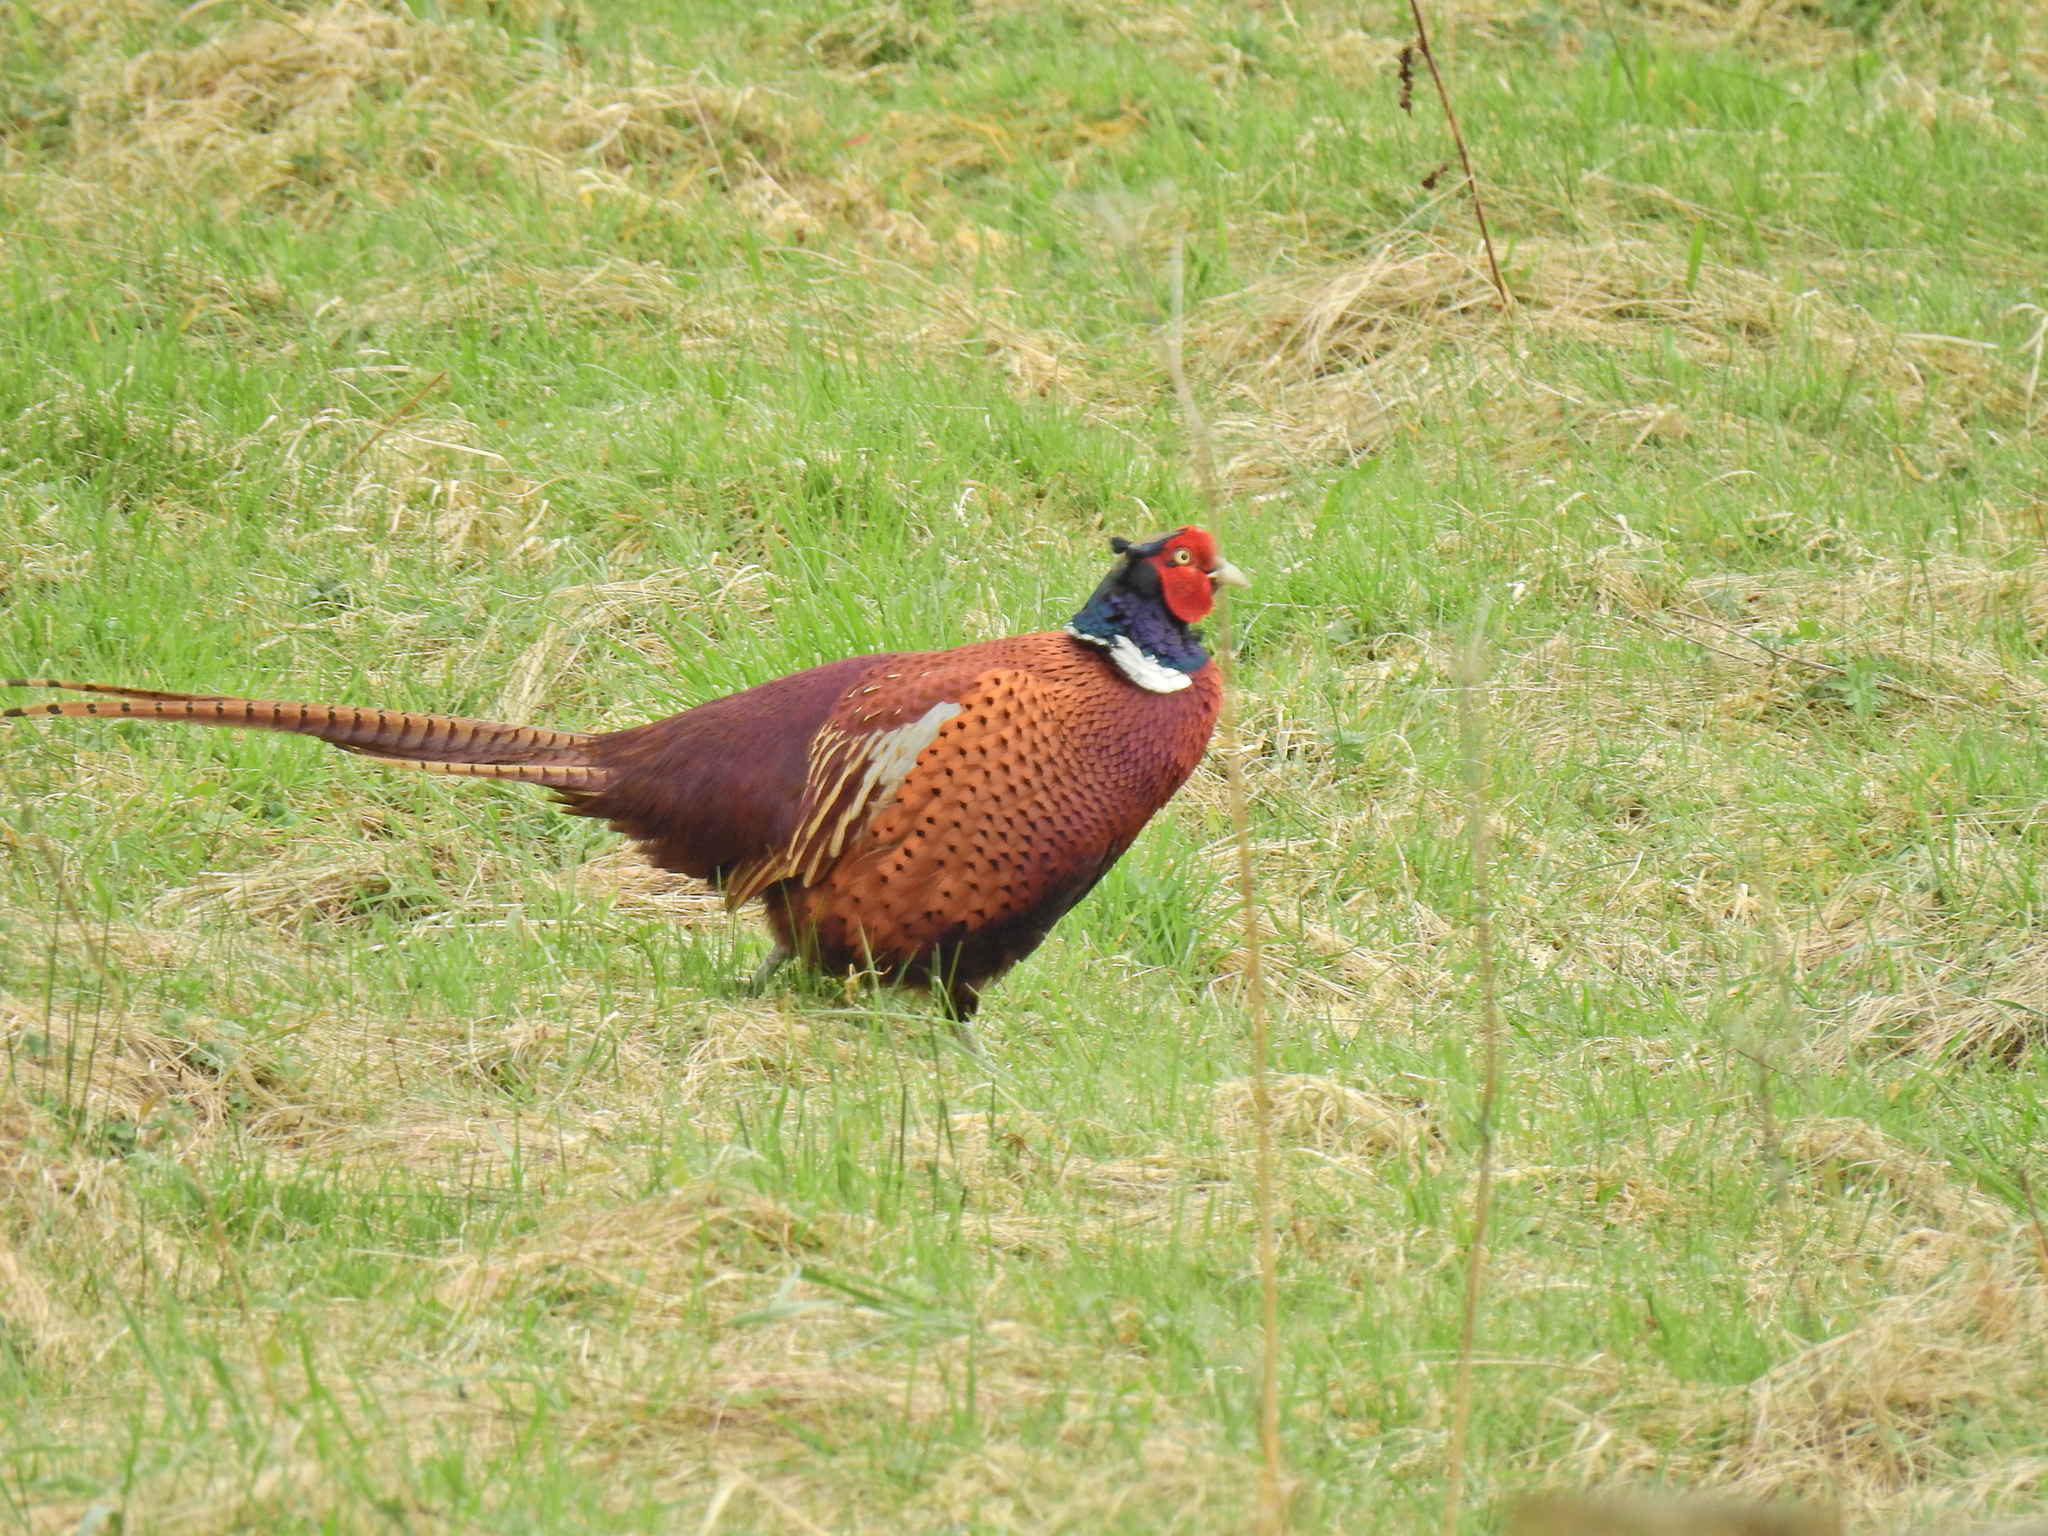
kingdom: Animalia
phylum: Chordata
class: Aves
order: Galliformes
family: Phasianidae
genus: Phasianus
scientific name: Phasianus colchicus
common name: Common pheasant
